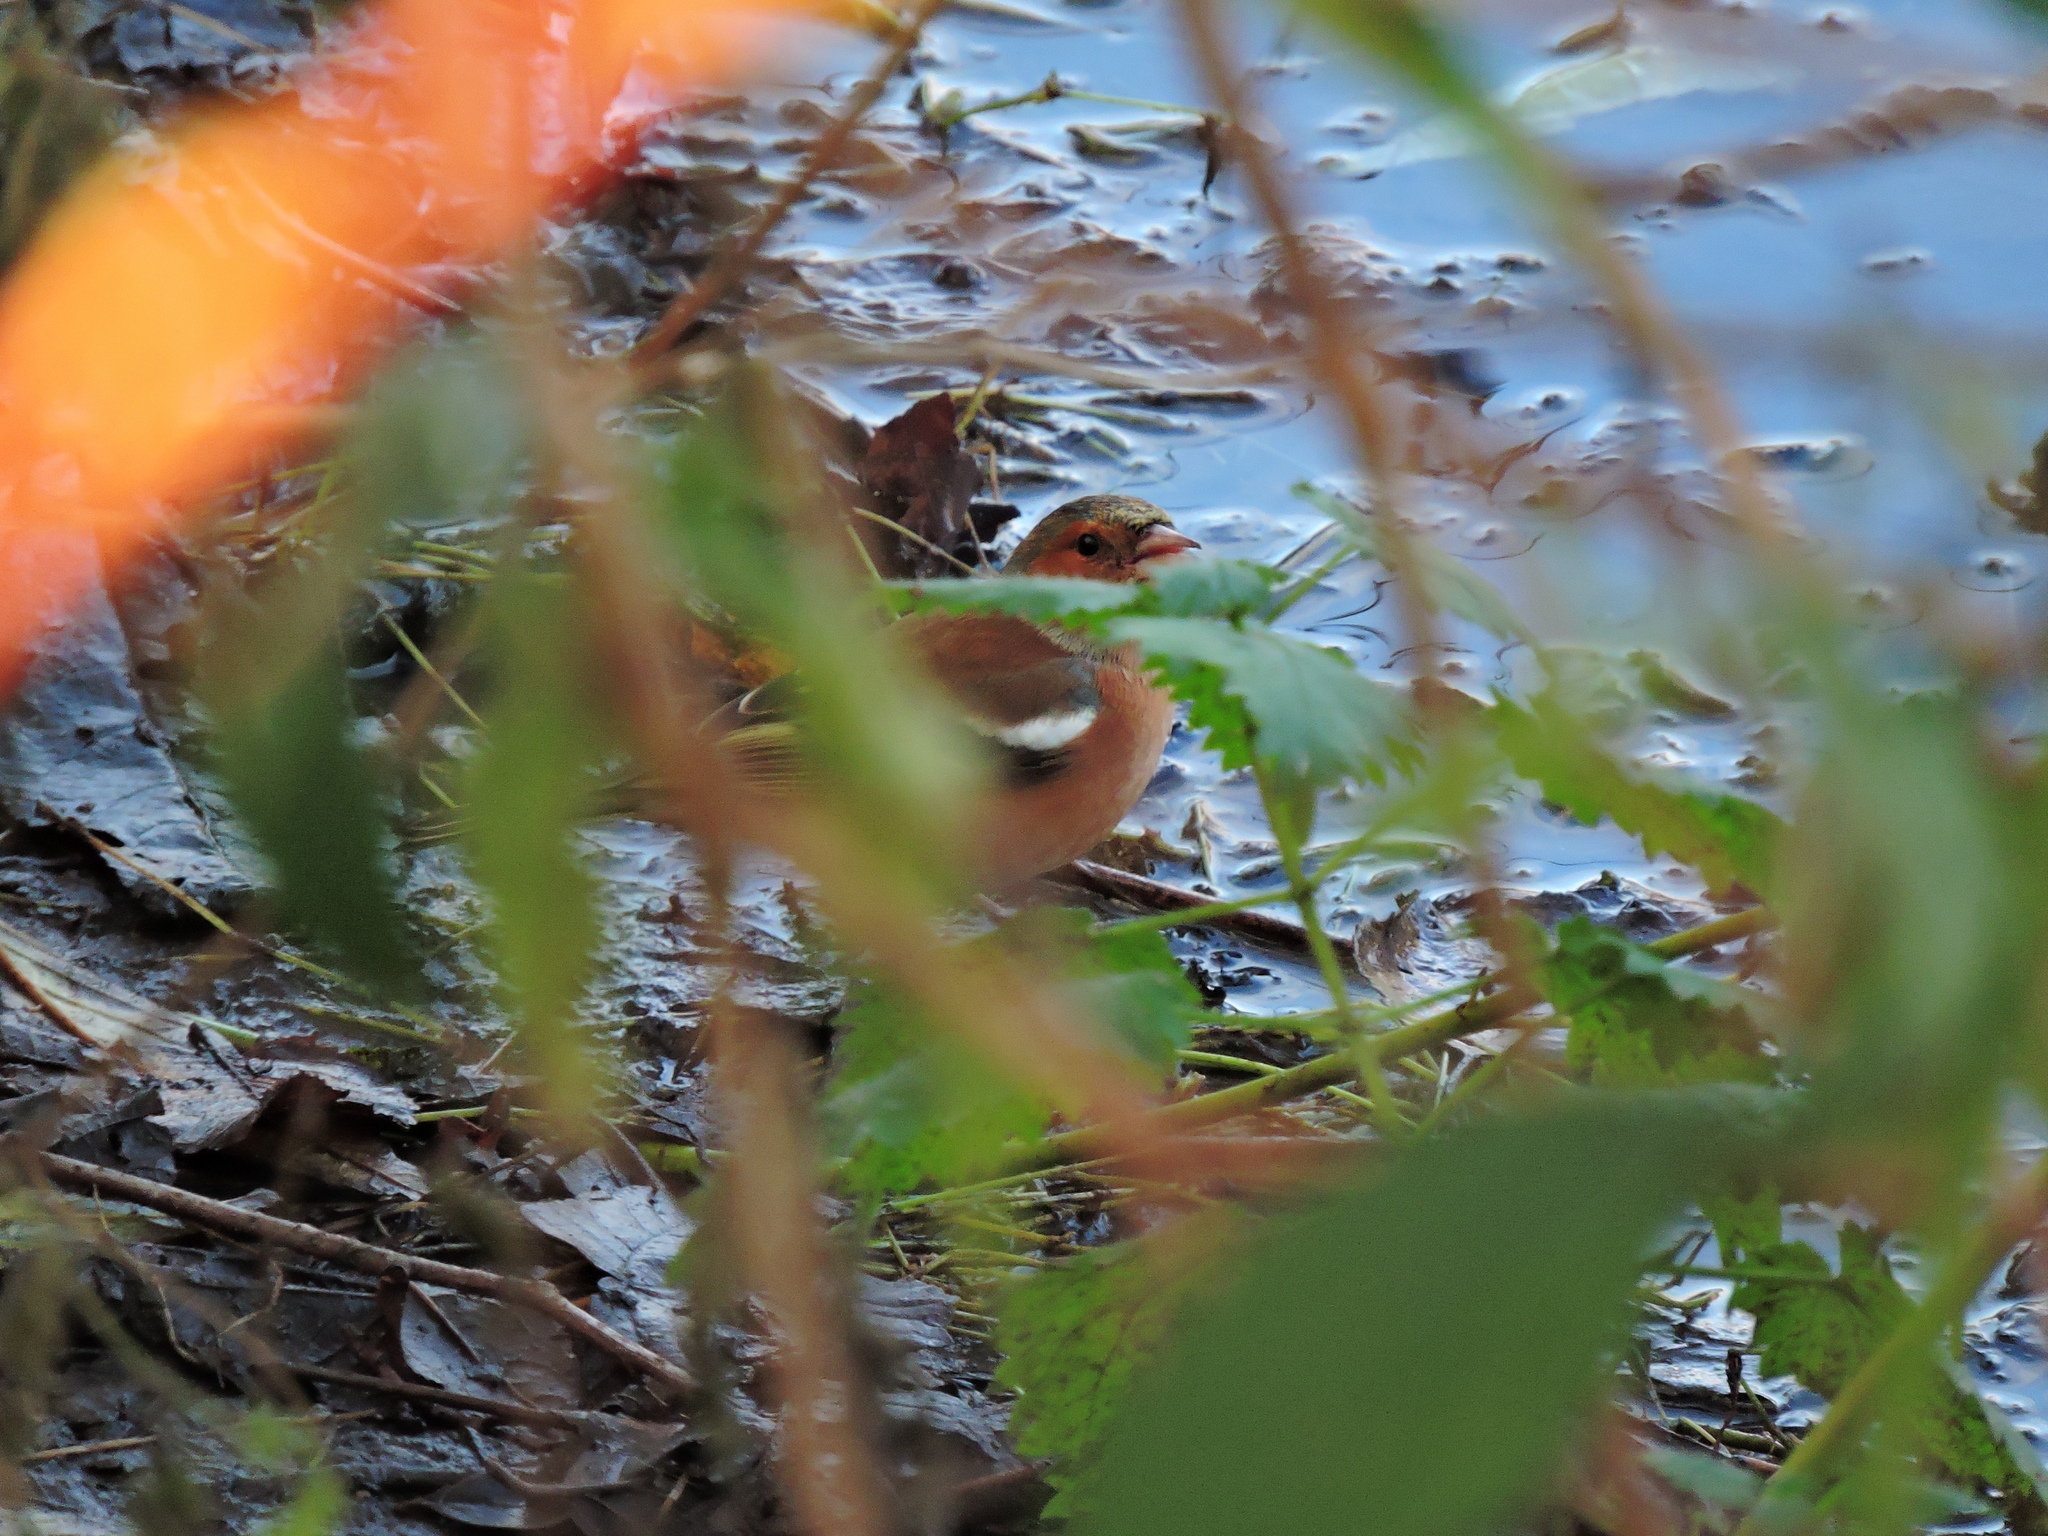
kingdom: Animalia
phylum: Chordata
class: Aves
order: Passeriformes
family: Fringillidae
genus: Fringilla
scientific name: Fringilla coelebs
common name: Common chaffinch
